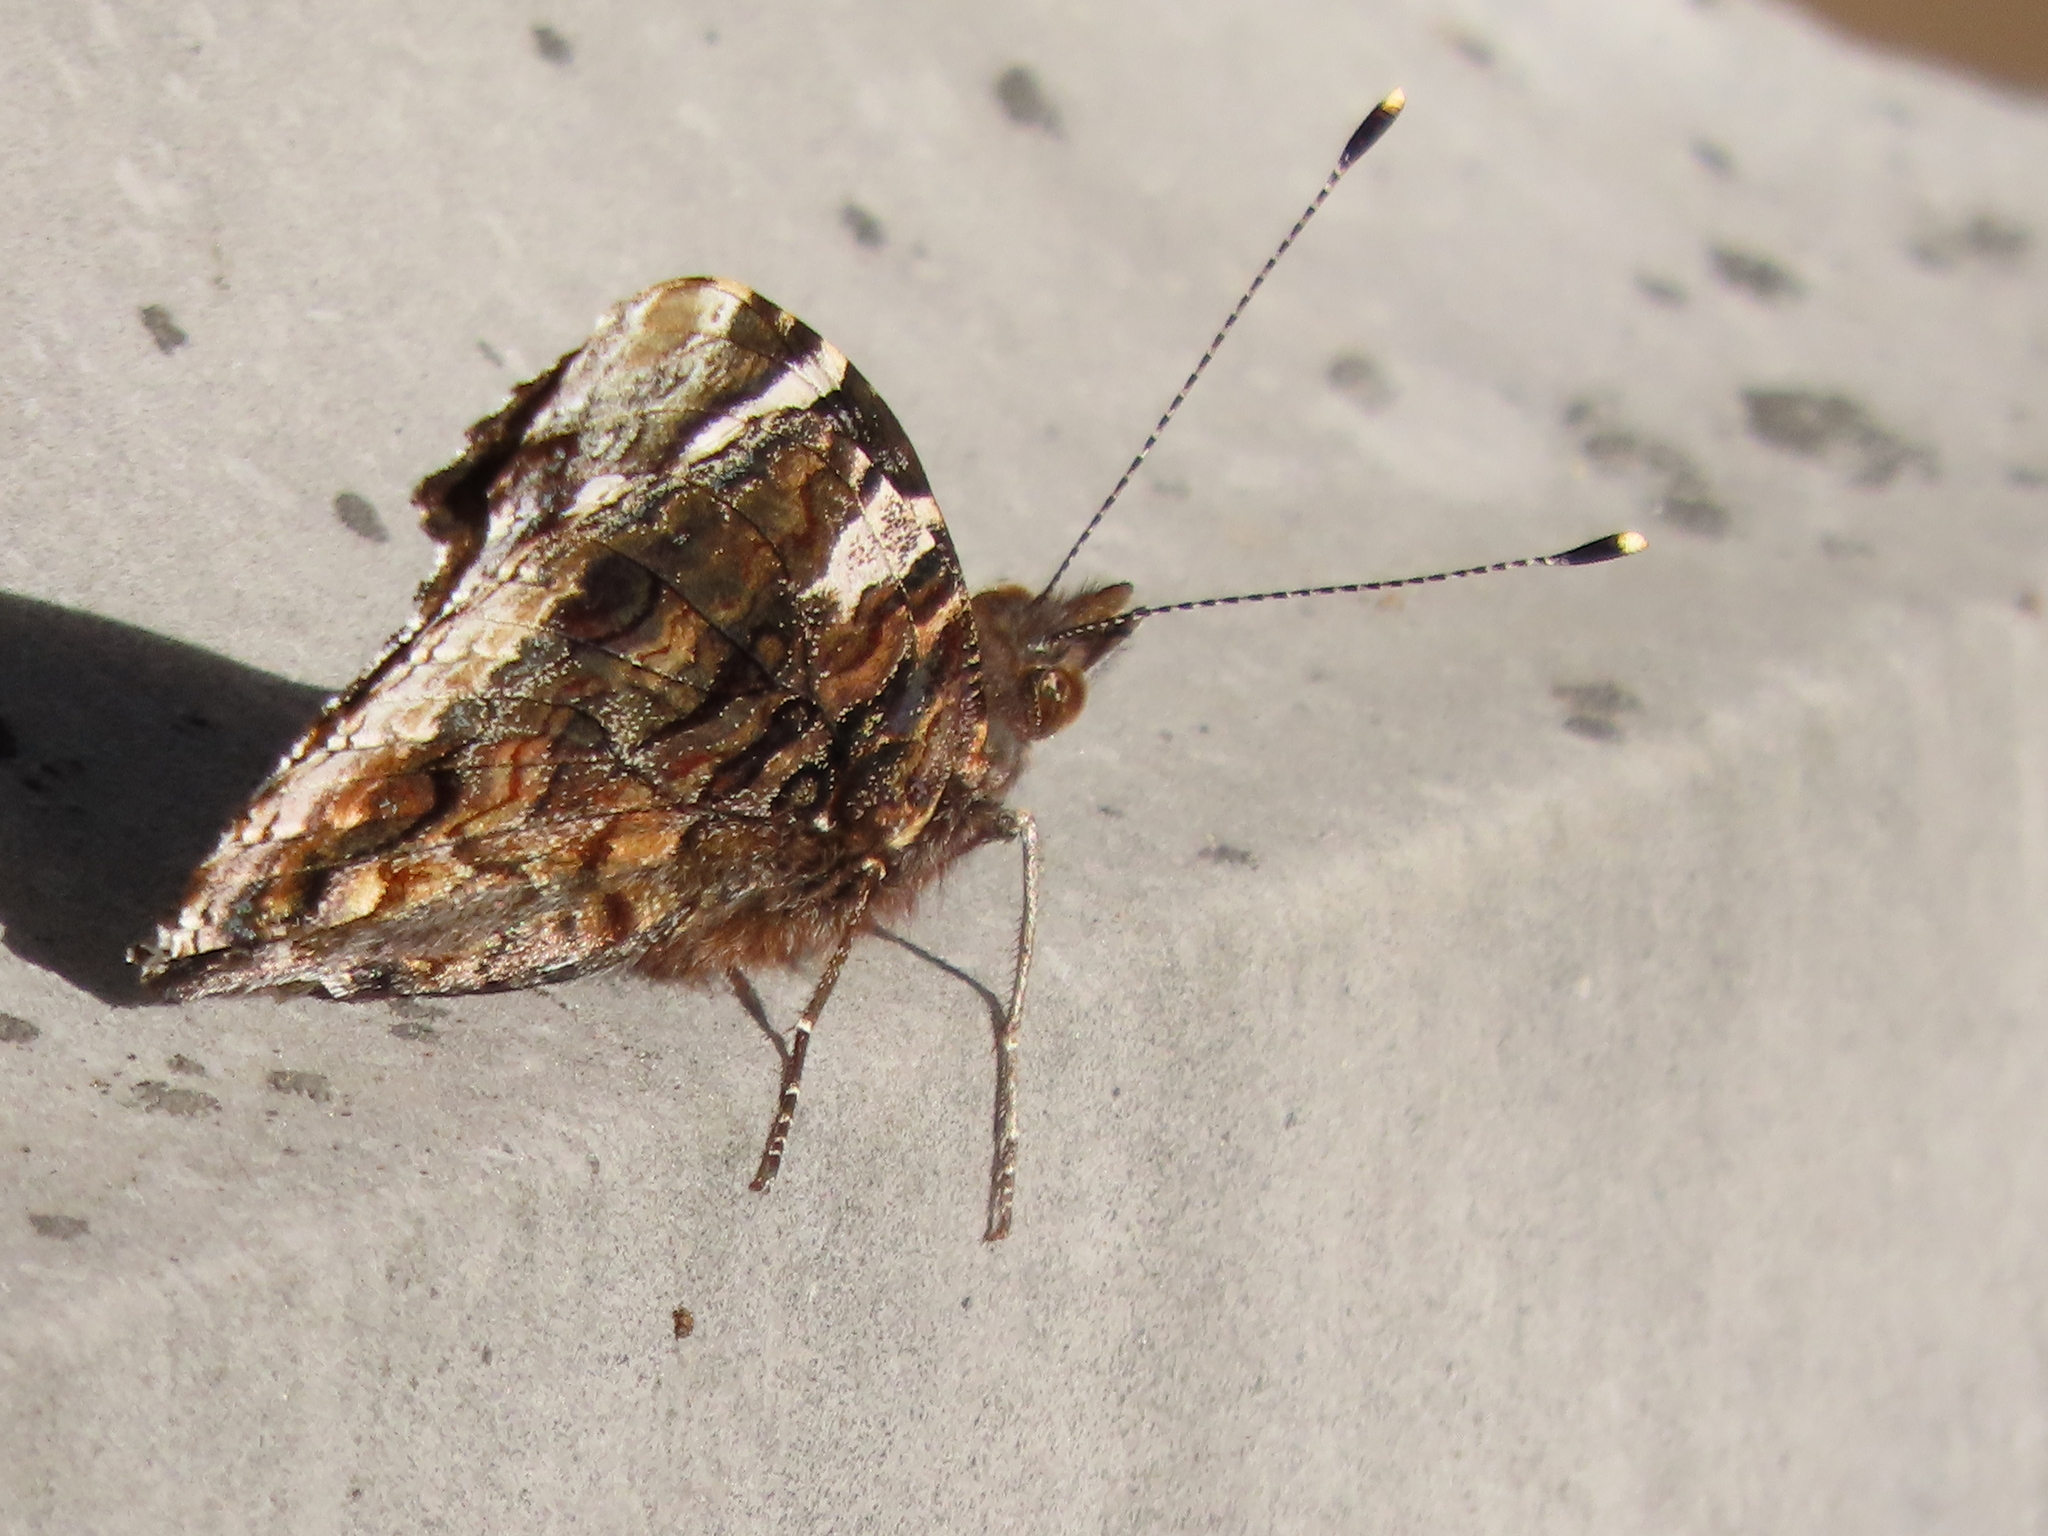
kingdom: Animalia
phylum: Arthropoda
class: Insecta
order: Lepidoptera
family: Nymphalidae
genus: Vanessa
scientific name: Vanessa atalanta
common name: Red admiral
